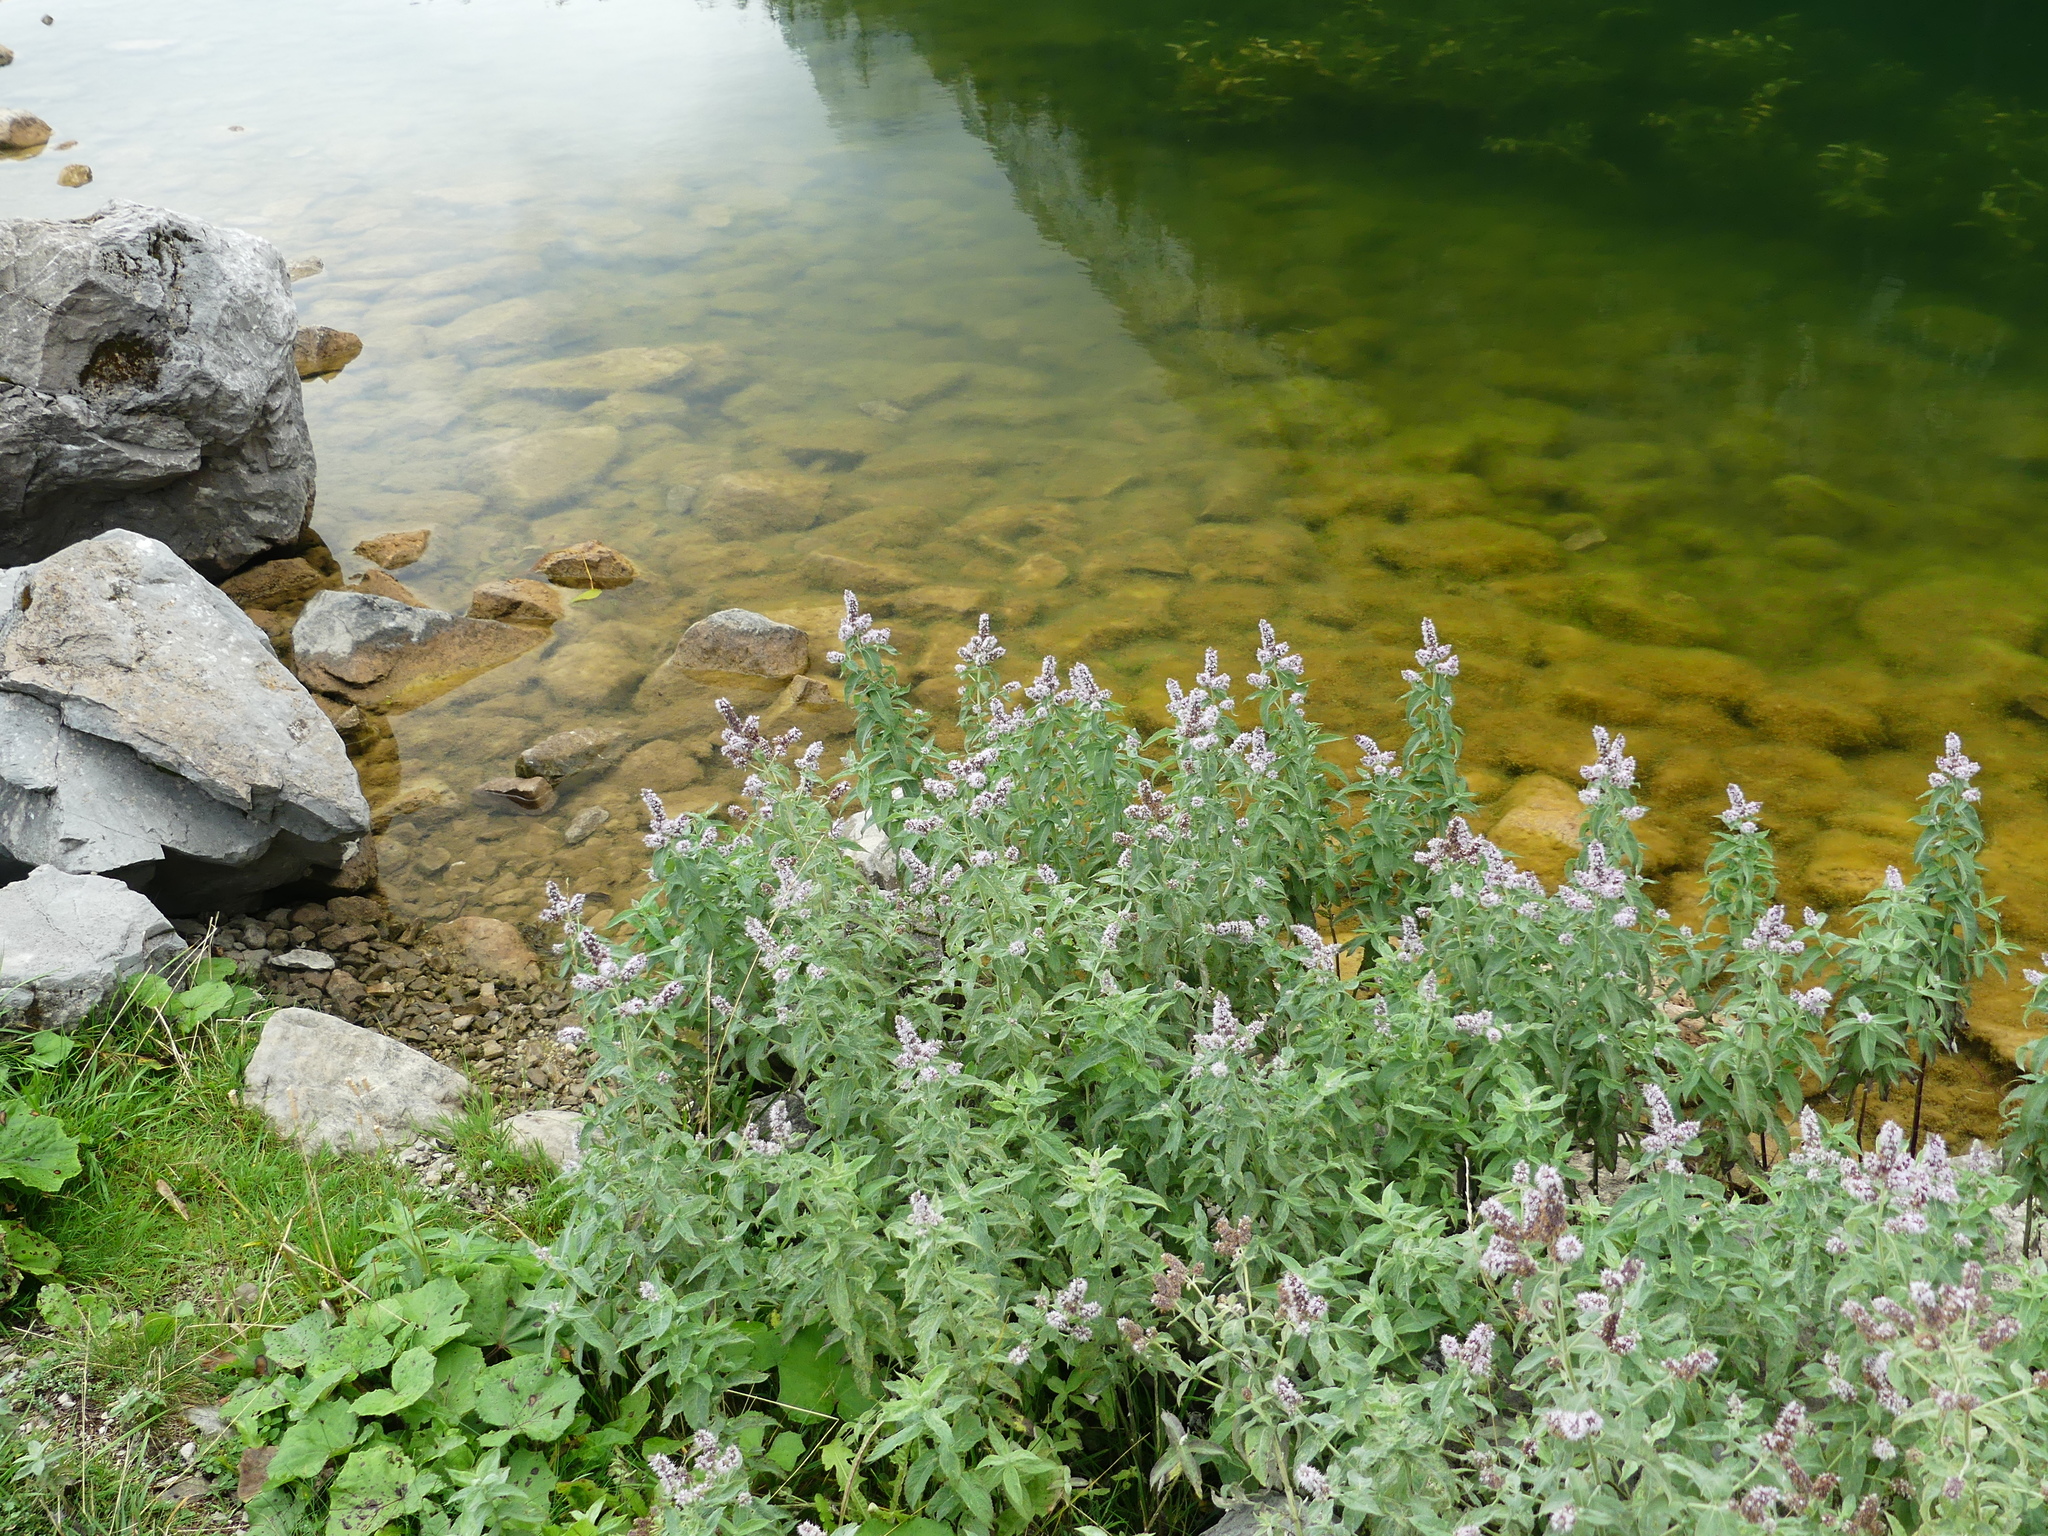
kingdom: Plantae
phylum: Tracheophyta
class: Magnoliopsida
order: Lamiales
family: Lamiaceae
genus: Mentha
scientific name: Mentha longifolia
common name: Horse mint
